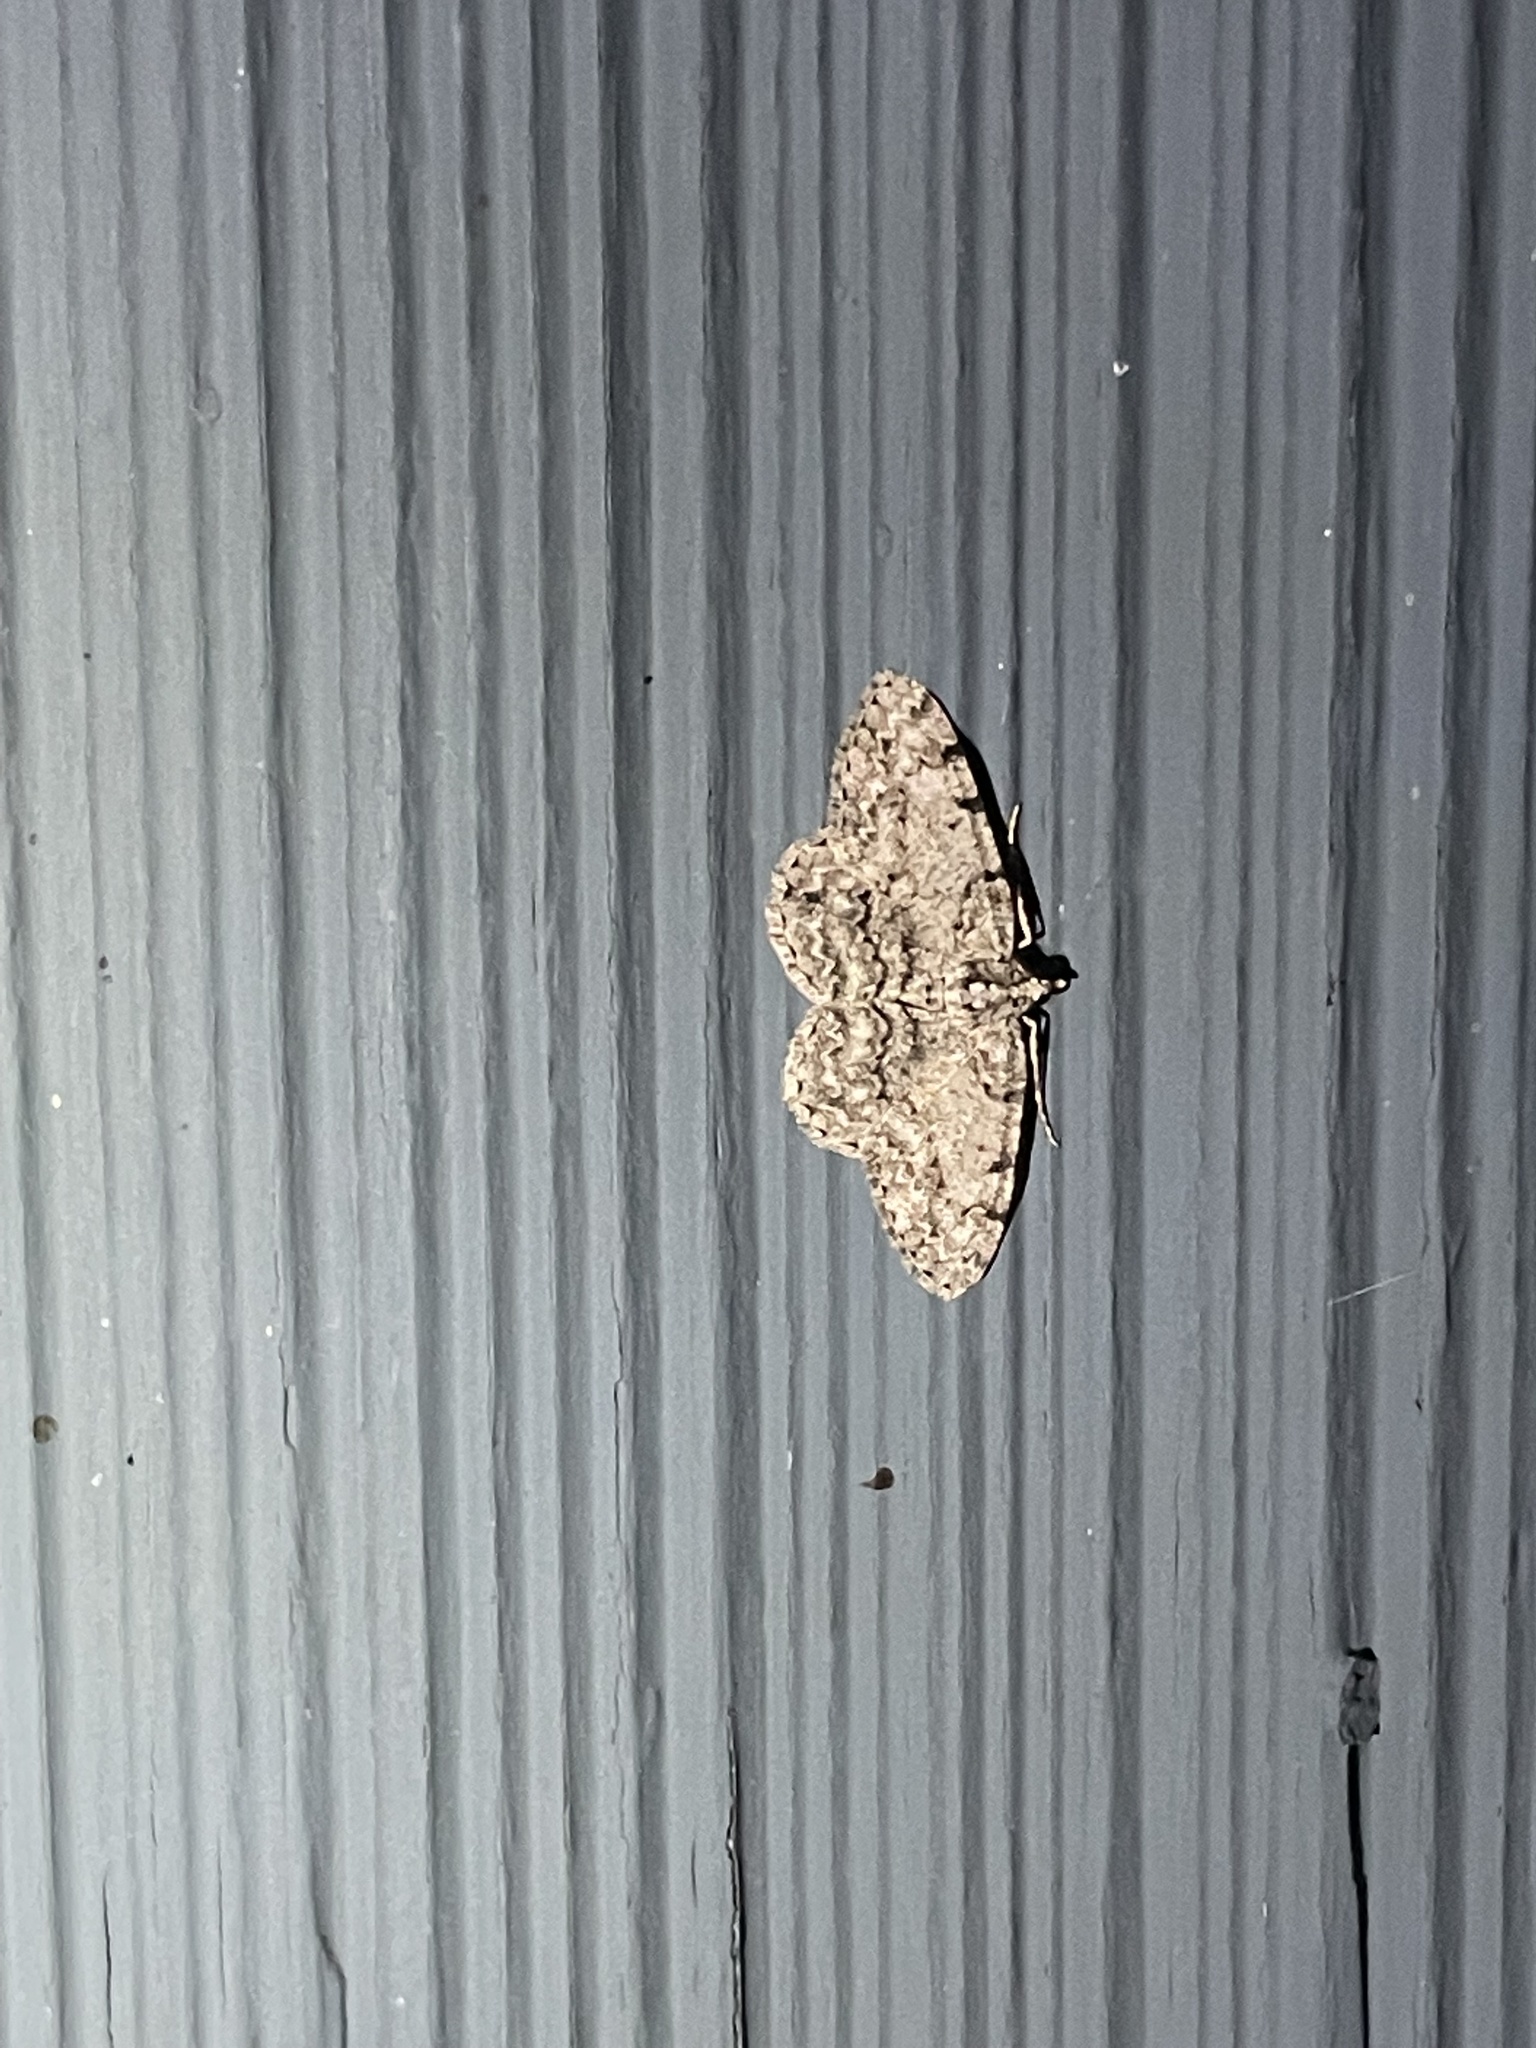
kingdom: Animalia
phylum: Arthropoda
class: Insecta
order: Lepidoptera
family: Geometridae
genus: Protoboarmia
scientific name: Protoboarmia porcelaria
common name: Porcelain gray
